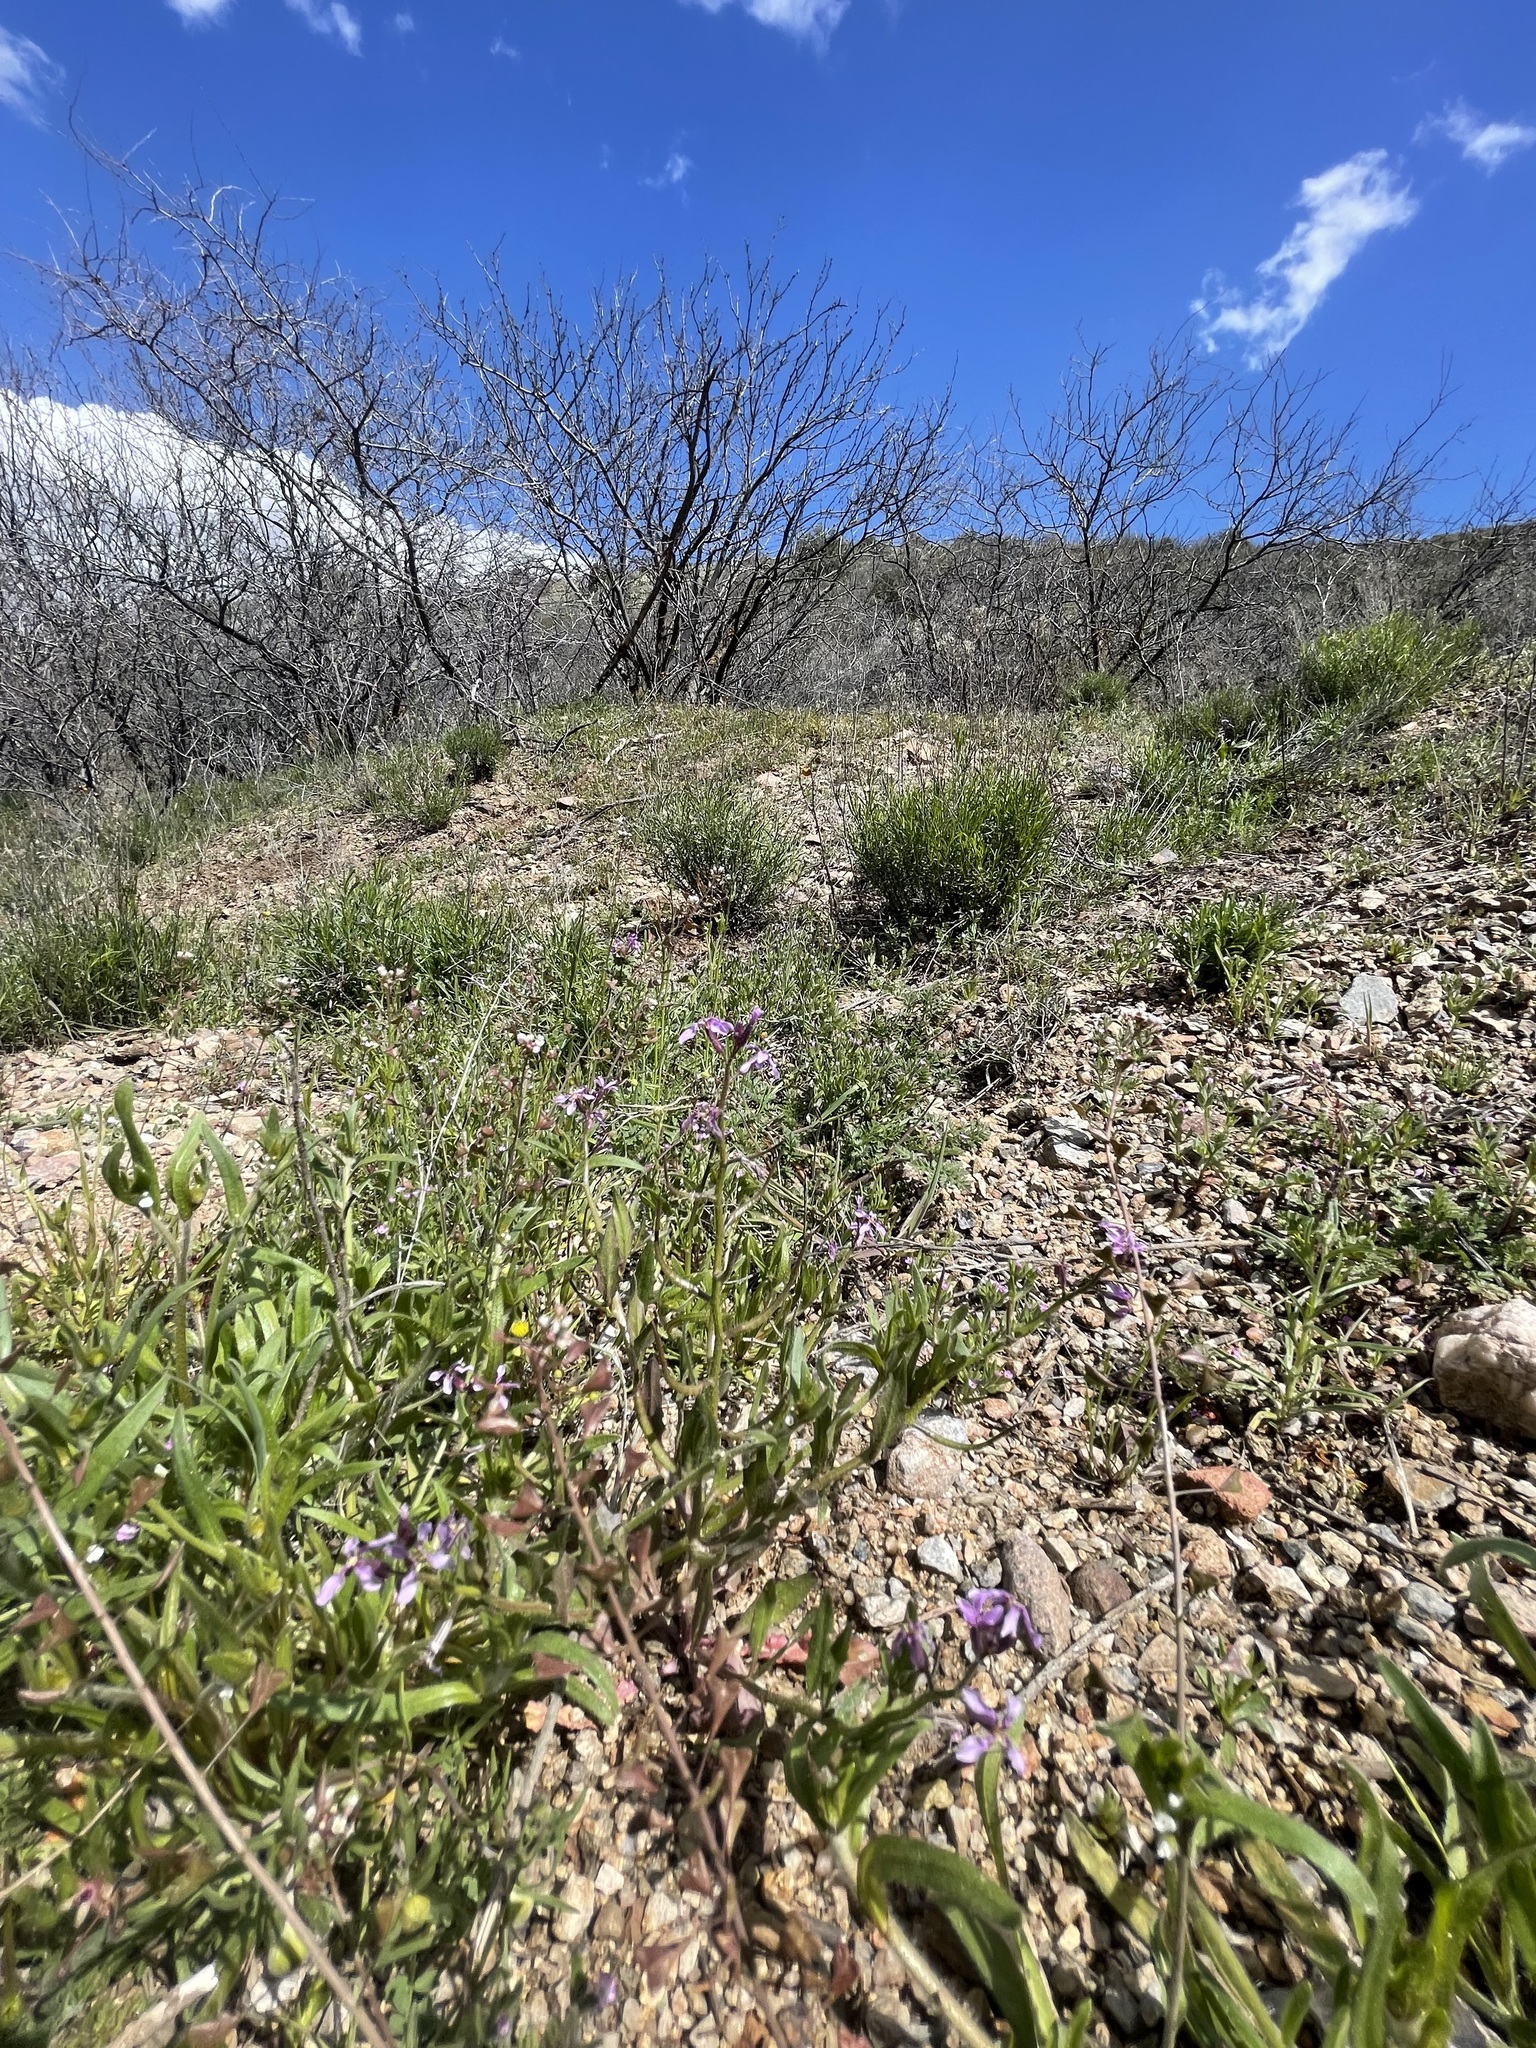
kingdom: Plantae
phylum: Tracheophyta
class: Magnoliopsida
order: Brassicales
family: Brassicaceae
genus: Chorispora
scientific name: Chorispora tenella
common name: Crossflower
